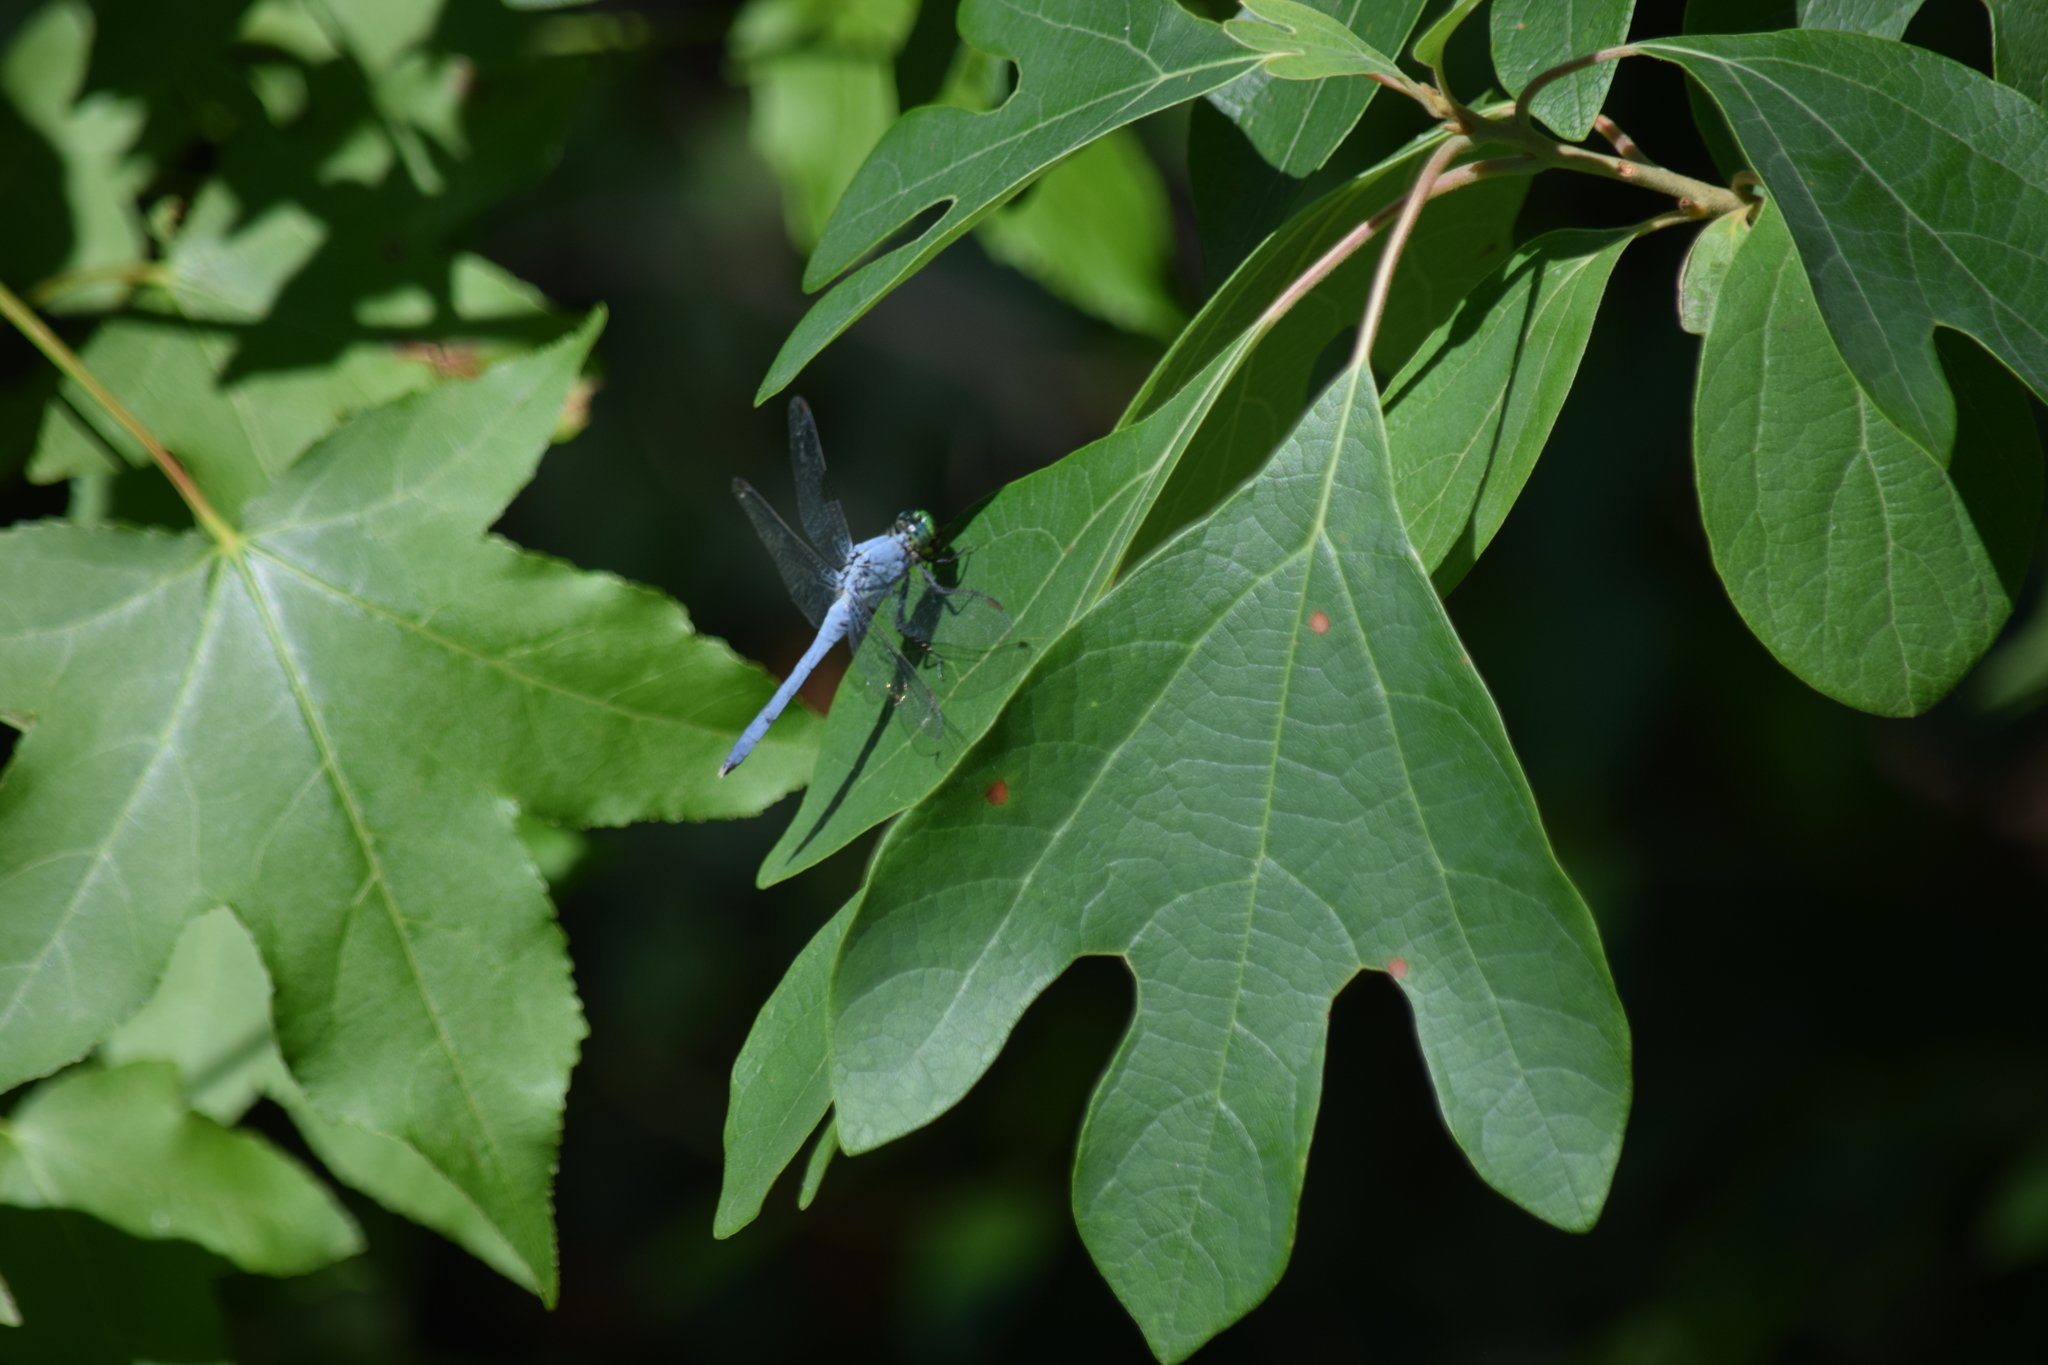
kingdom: Animalia
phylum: Arthropoda
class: Insecta
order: Odonata
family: Libellulidae
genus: Erythemis
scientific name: Erythemis simplicicollis
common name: Eastern pondhawk
